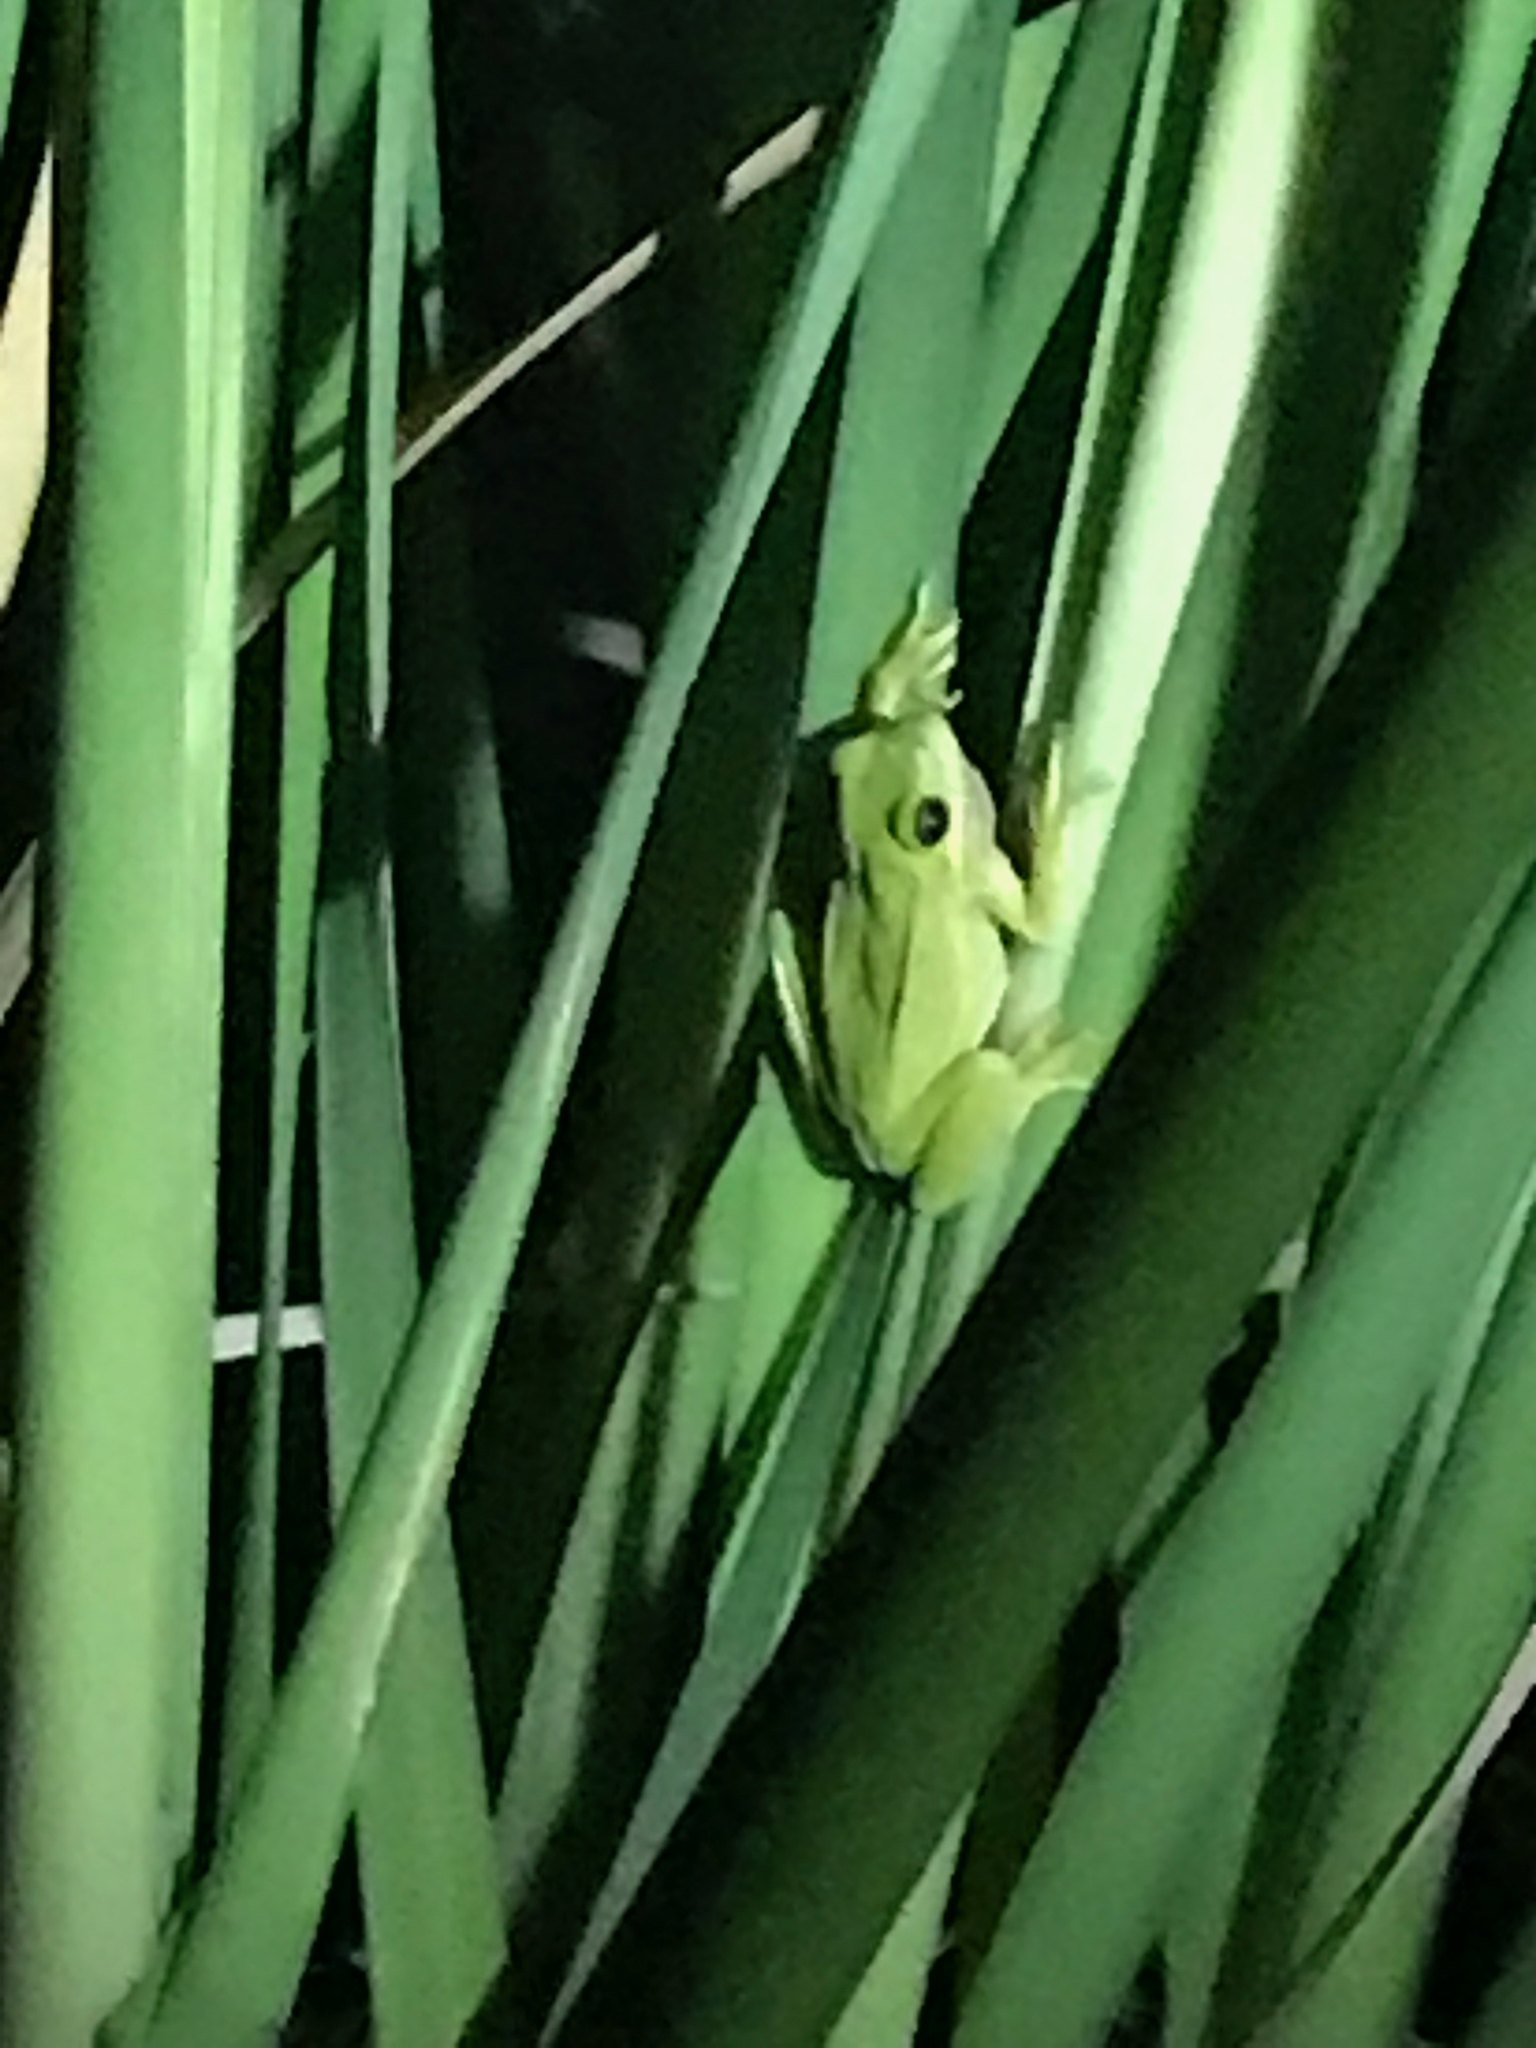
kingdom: Animalia
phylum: Chordata
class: Amphibia
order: Anura
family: Hylidae
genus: Dryophytes
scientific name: Dryophytes cinereus
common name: Green treefrog
